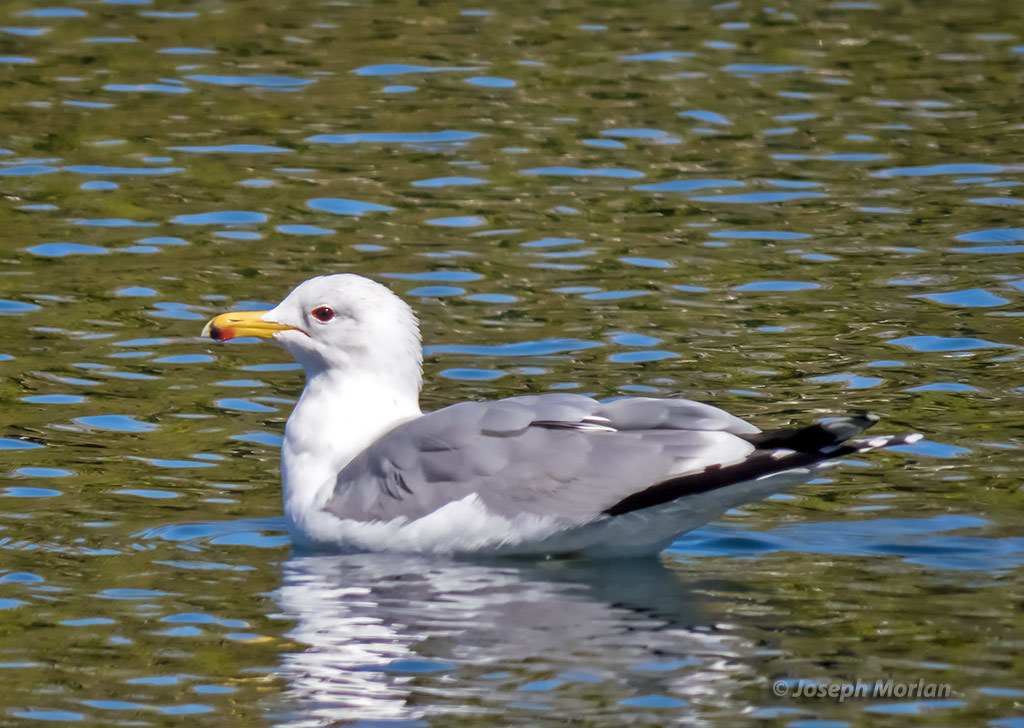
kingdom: Animalia
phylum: Chordata
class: Aves
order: Charadriiformes
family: Laridae
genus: Larus
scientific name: Larus californicus
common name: California gull
